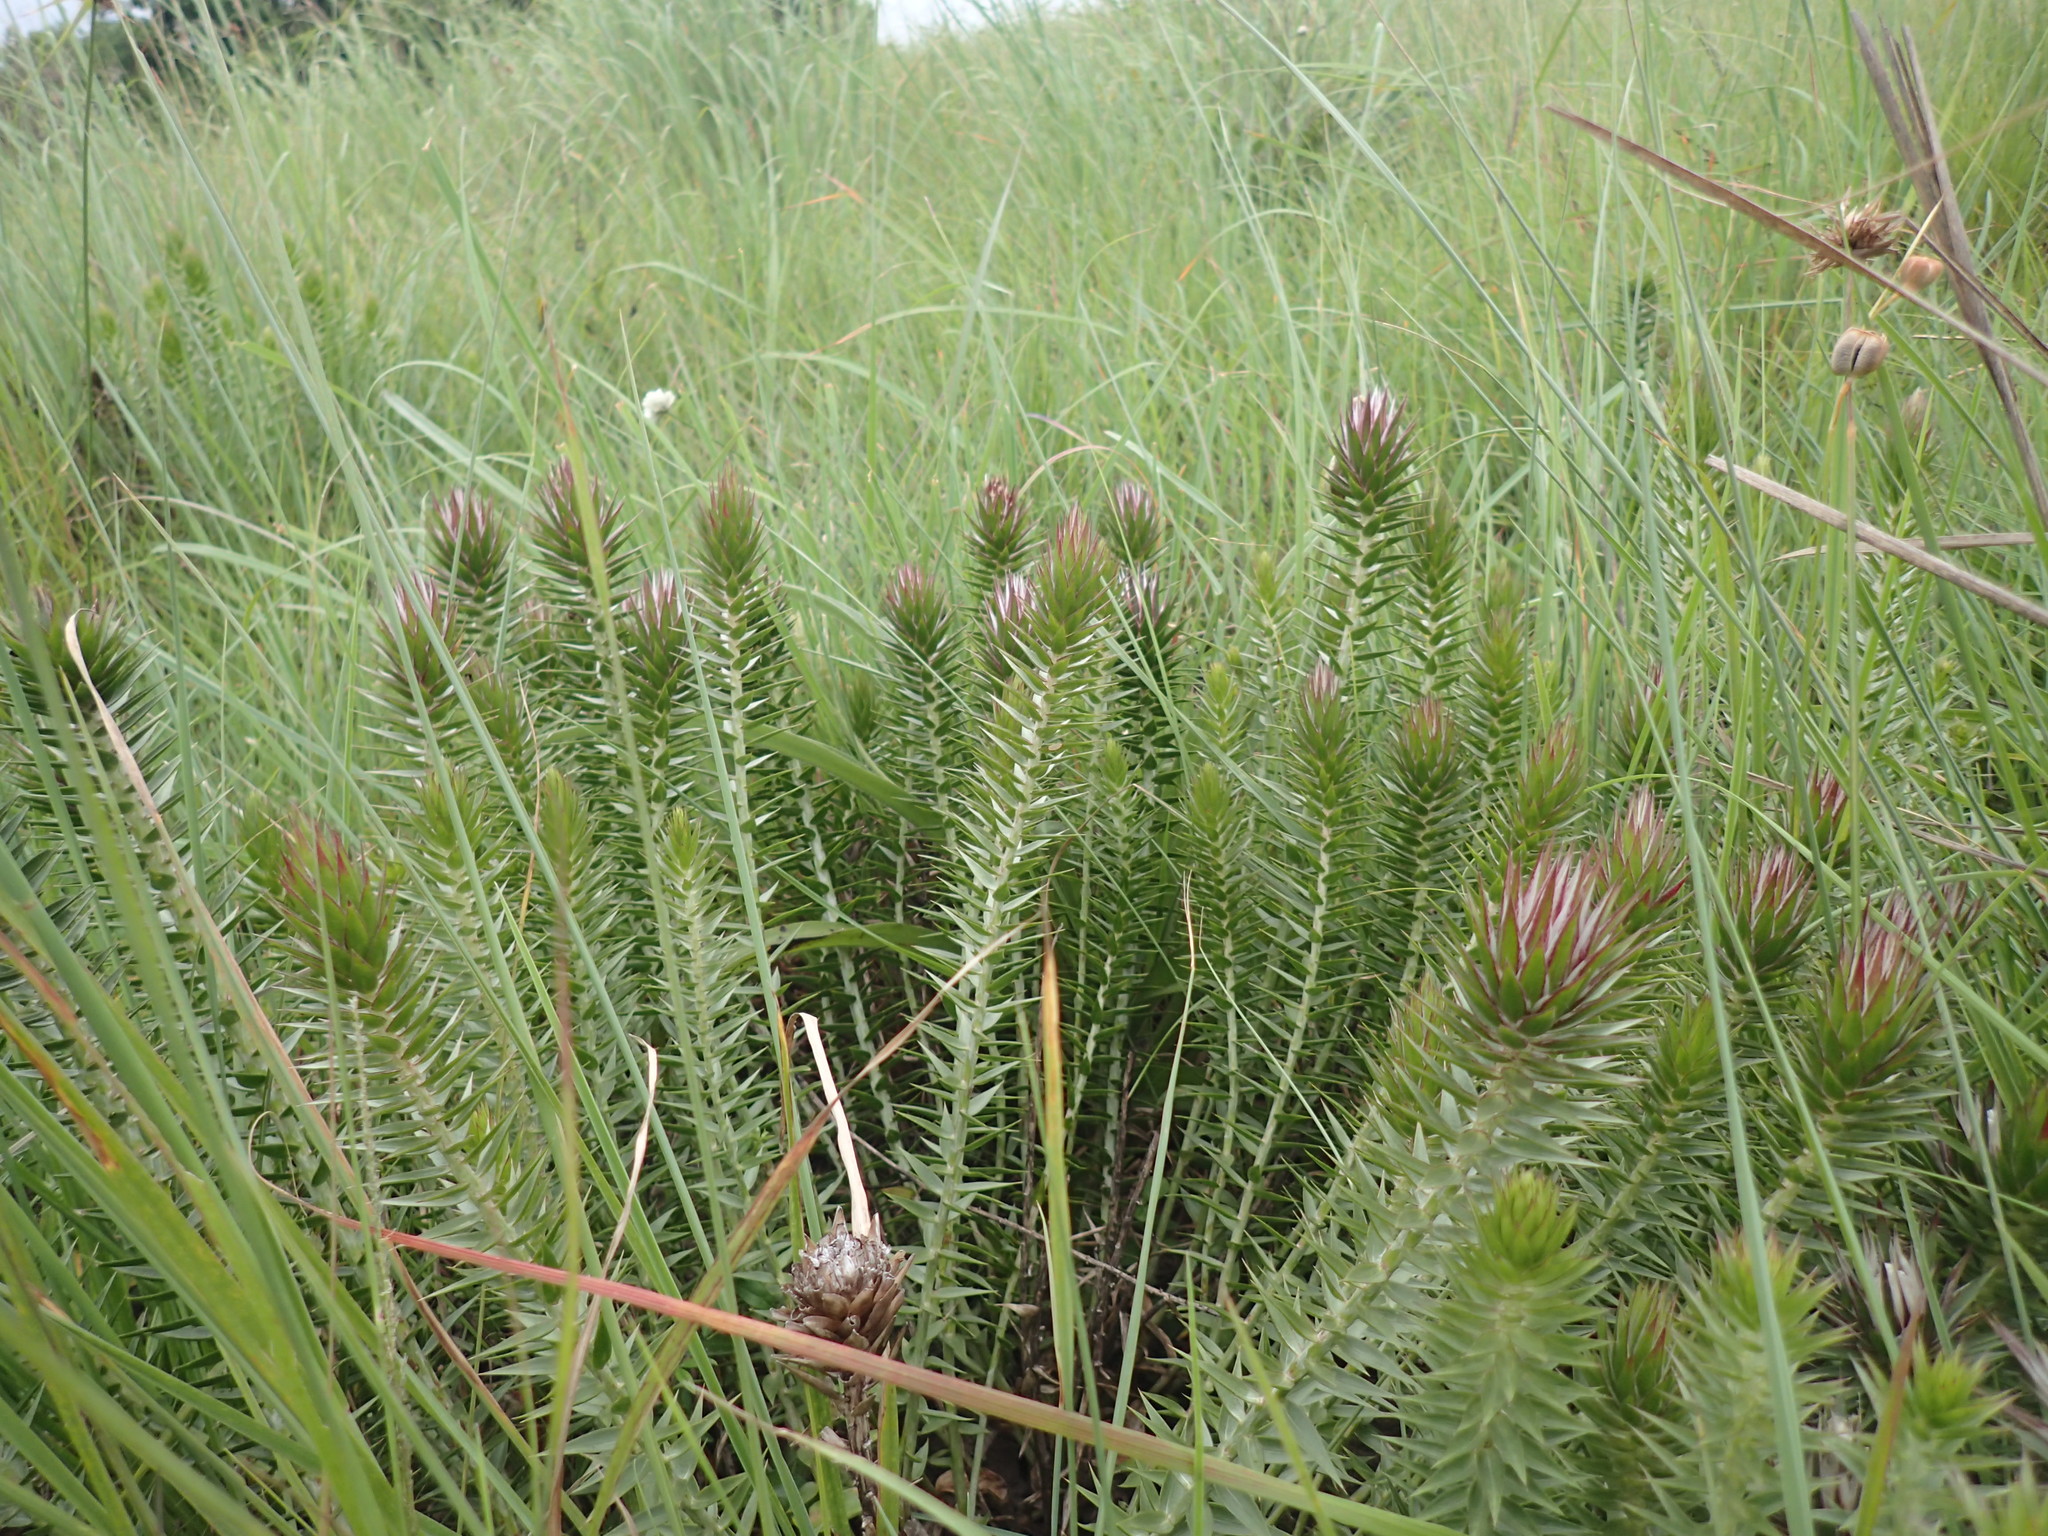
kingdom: Plantae
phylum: Tracheophyta
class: Magnoliopsida
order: Asterales
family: Asteraceae
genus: Macledium
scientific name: Macledium speciosum
